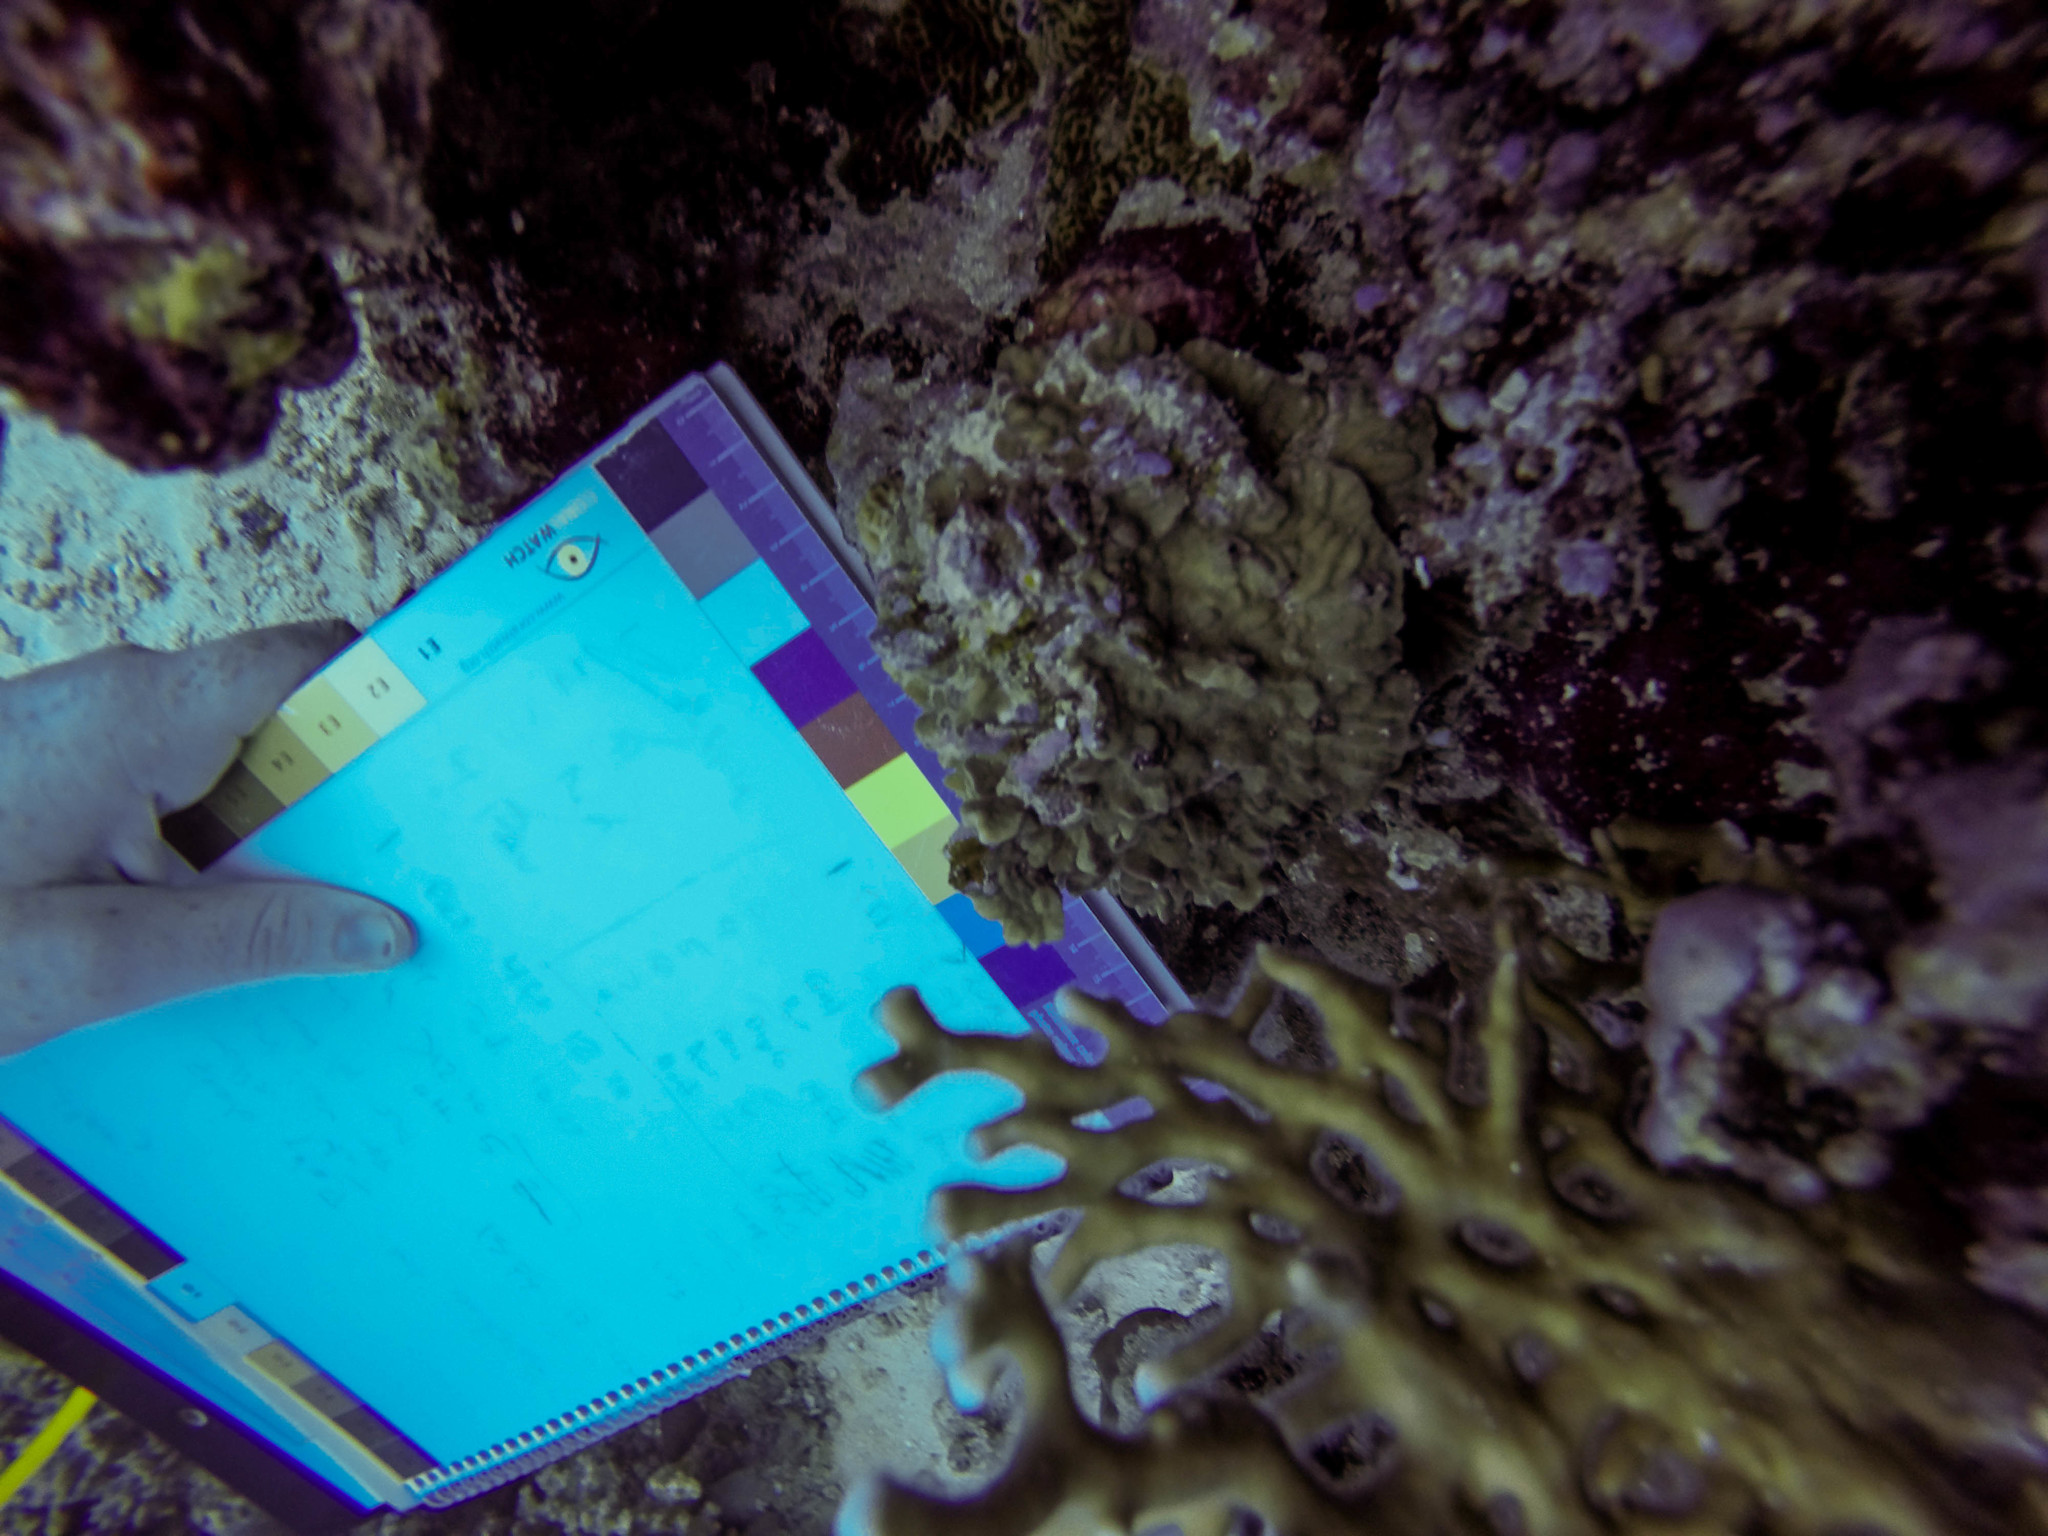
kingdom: Animalia
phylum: Cnidaria
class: Hydrozoa
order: Anthoathecata
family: Milleporidae
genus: Millepora
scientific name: Millepora dichotoma
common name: Ramified fire coral
